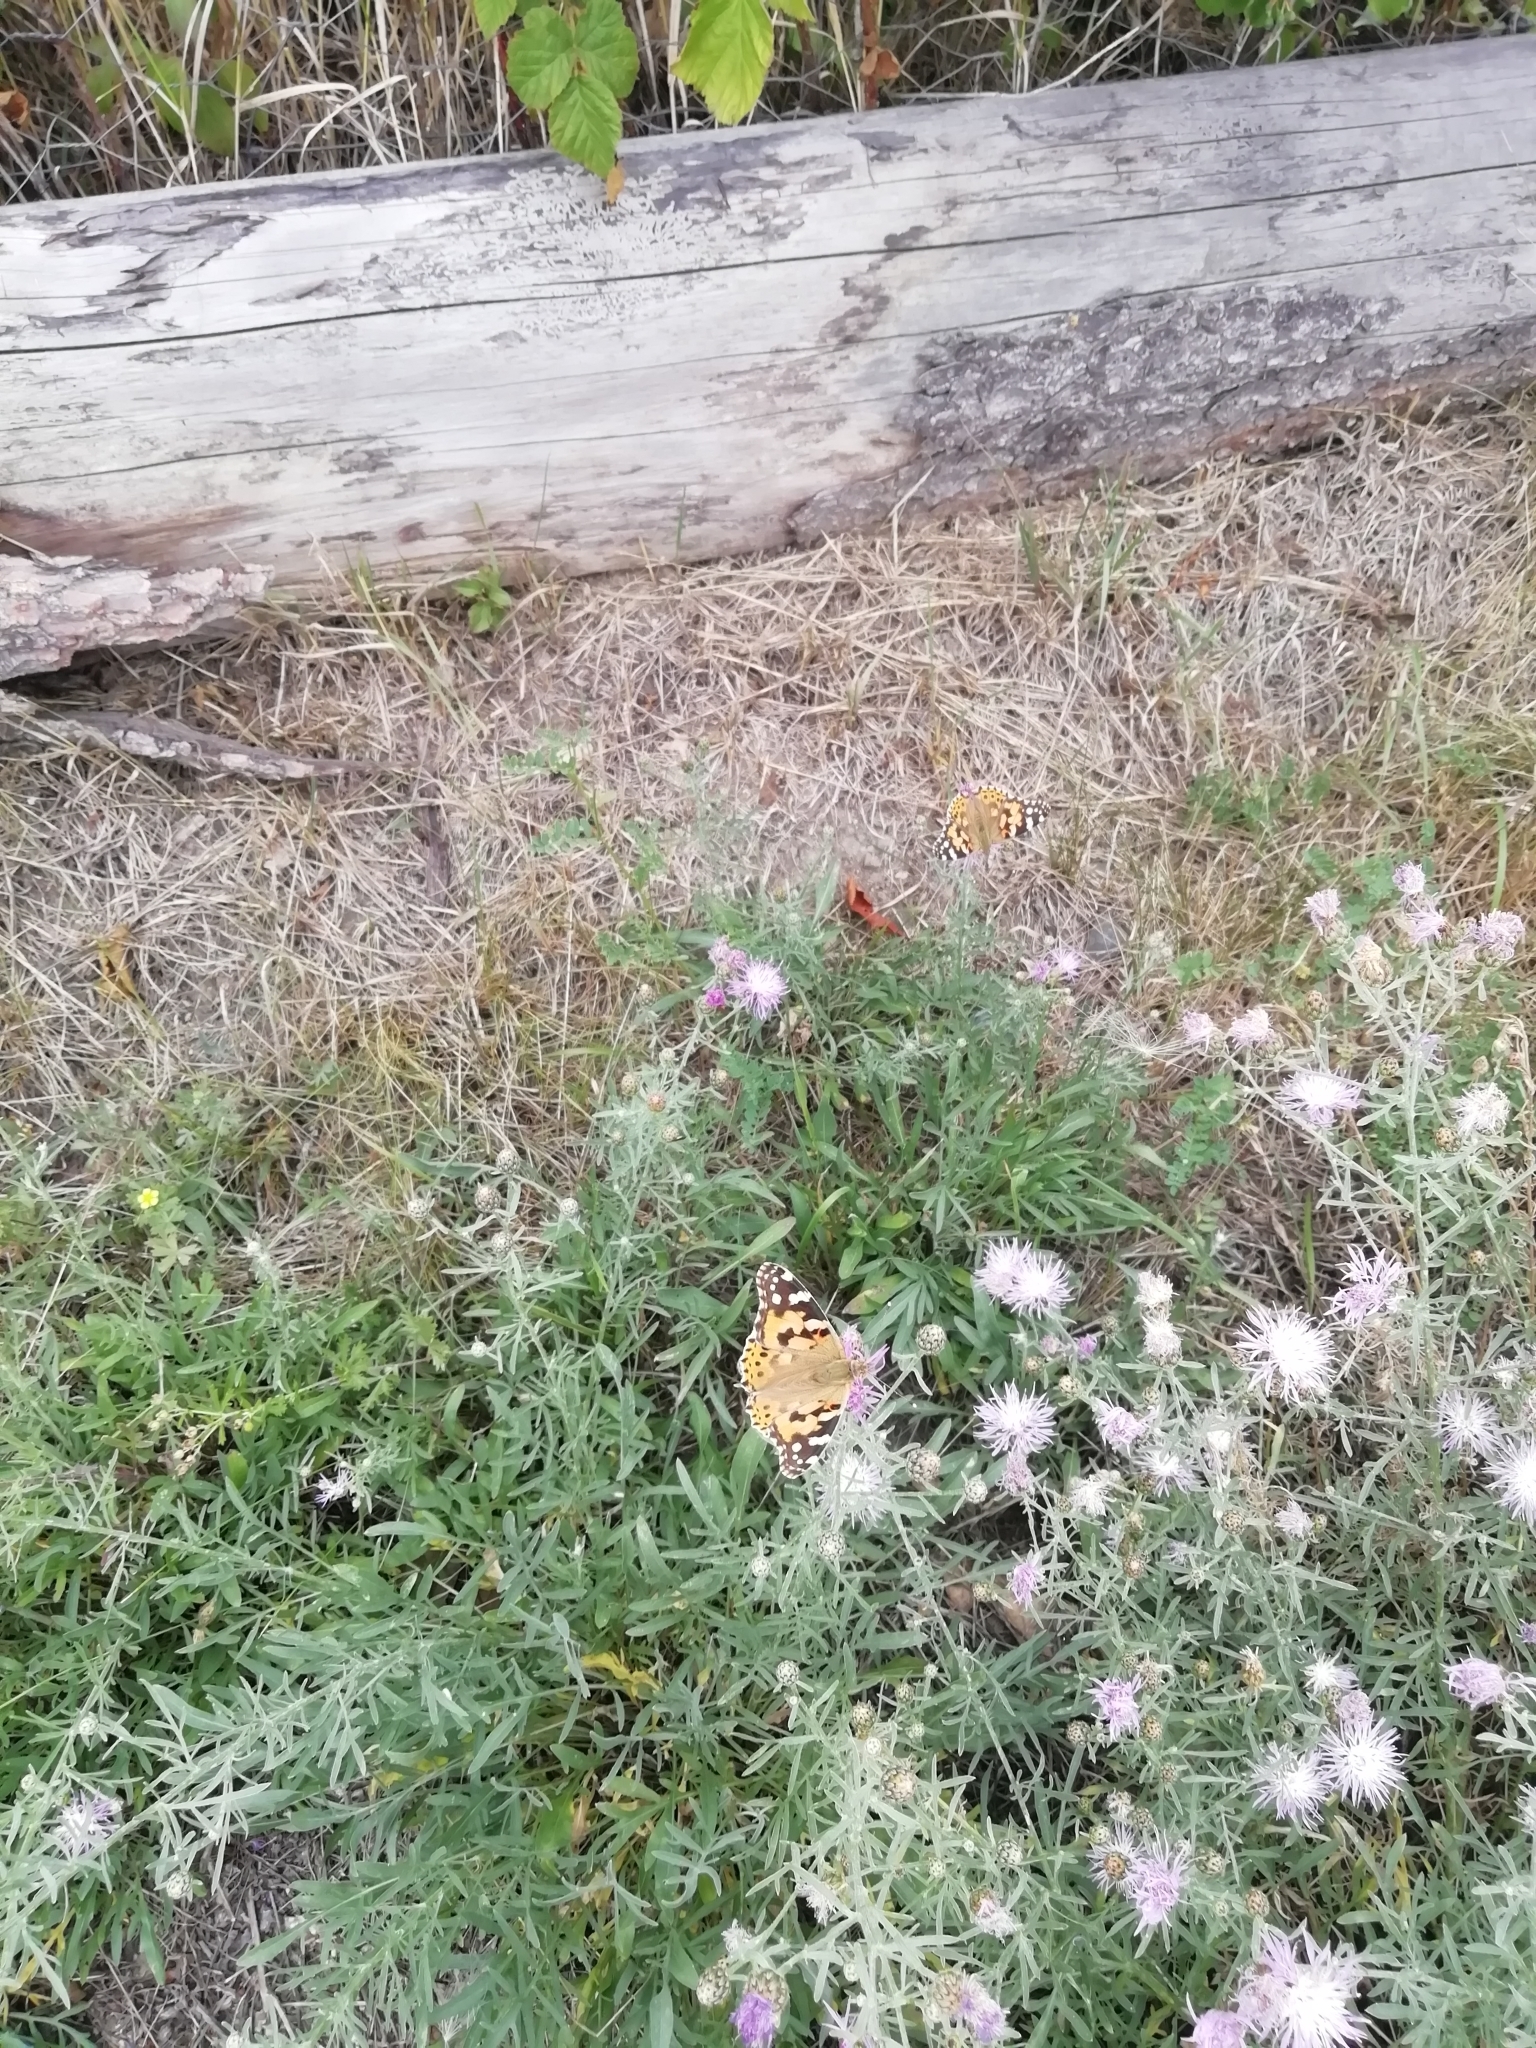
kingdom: Animalia
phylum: Arthropoda
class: Insecta
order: Lepidoptera
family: Nymphalidae
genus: Vanessa
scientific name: Vanessa cardui
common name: Painted lady
